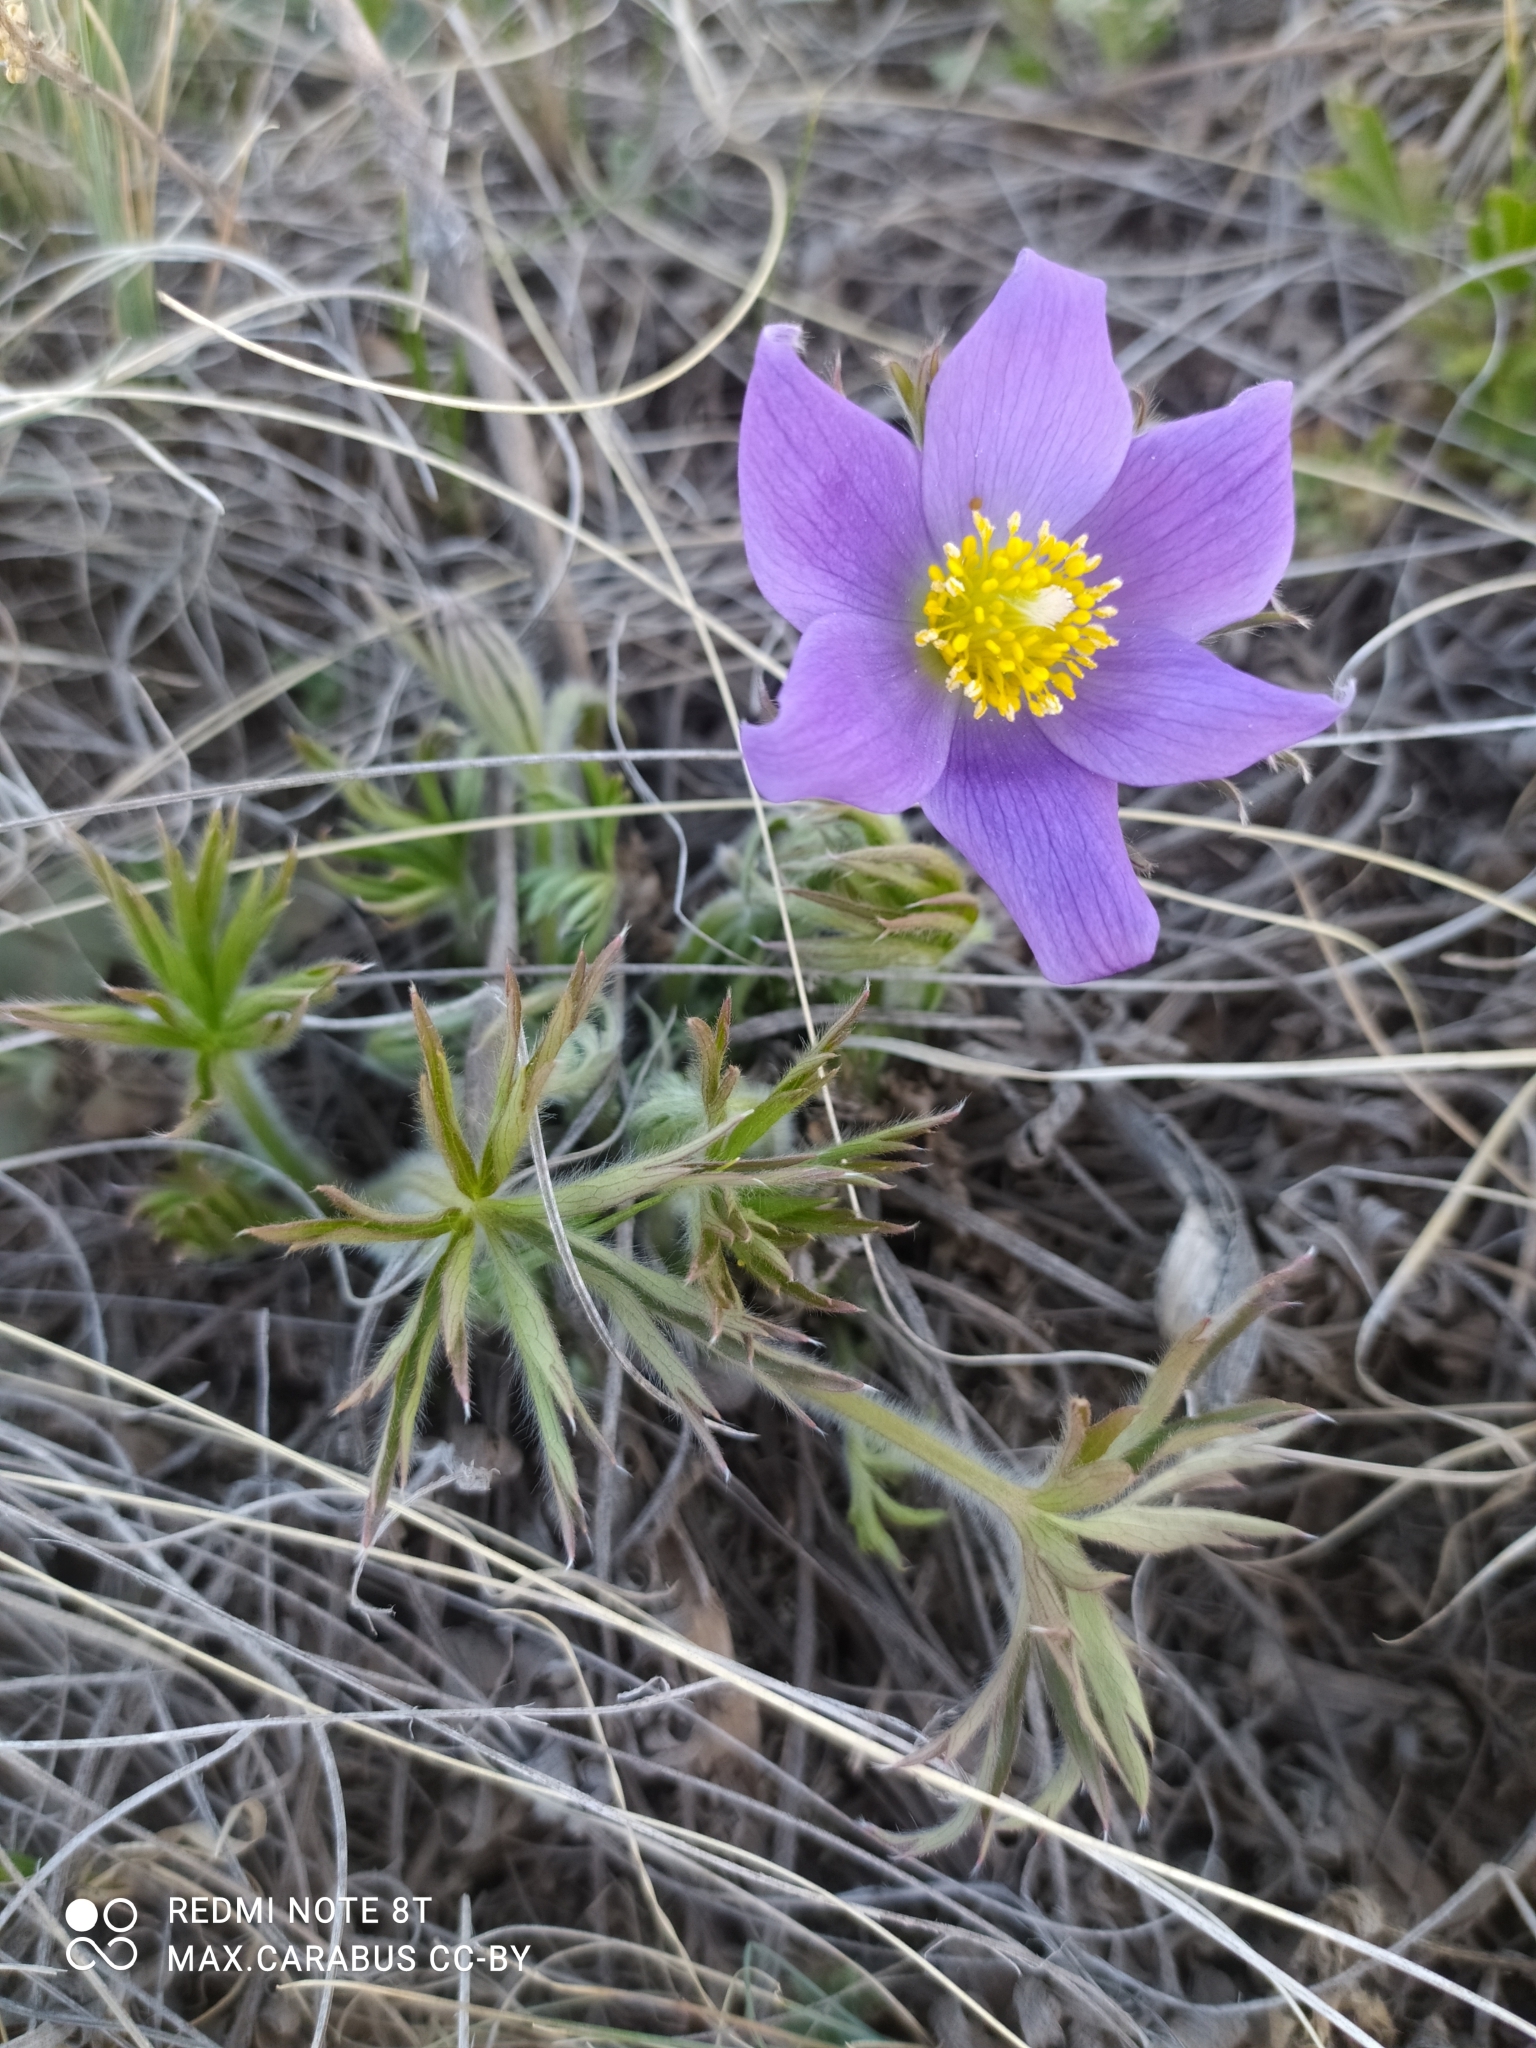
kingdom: Plantae
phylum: Tracheophyta
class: Magnoliopsida
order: Ranunculales
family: Ranunculaceae
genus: Pulsatilla
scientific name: Pulsatilla patens
